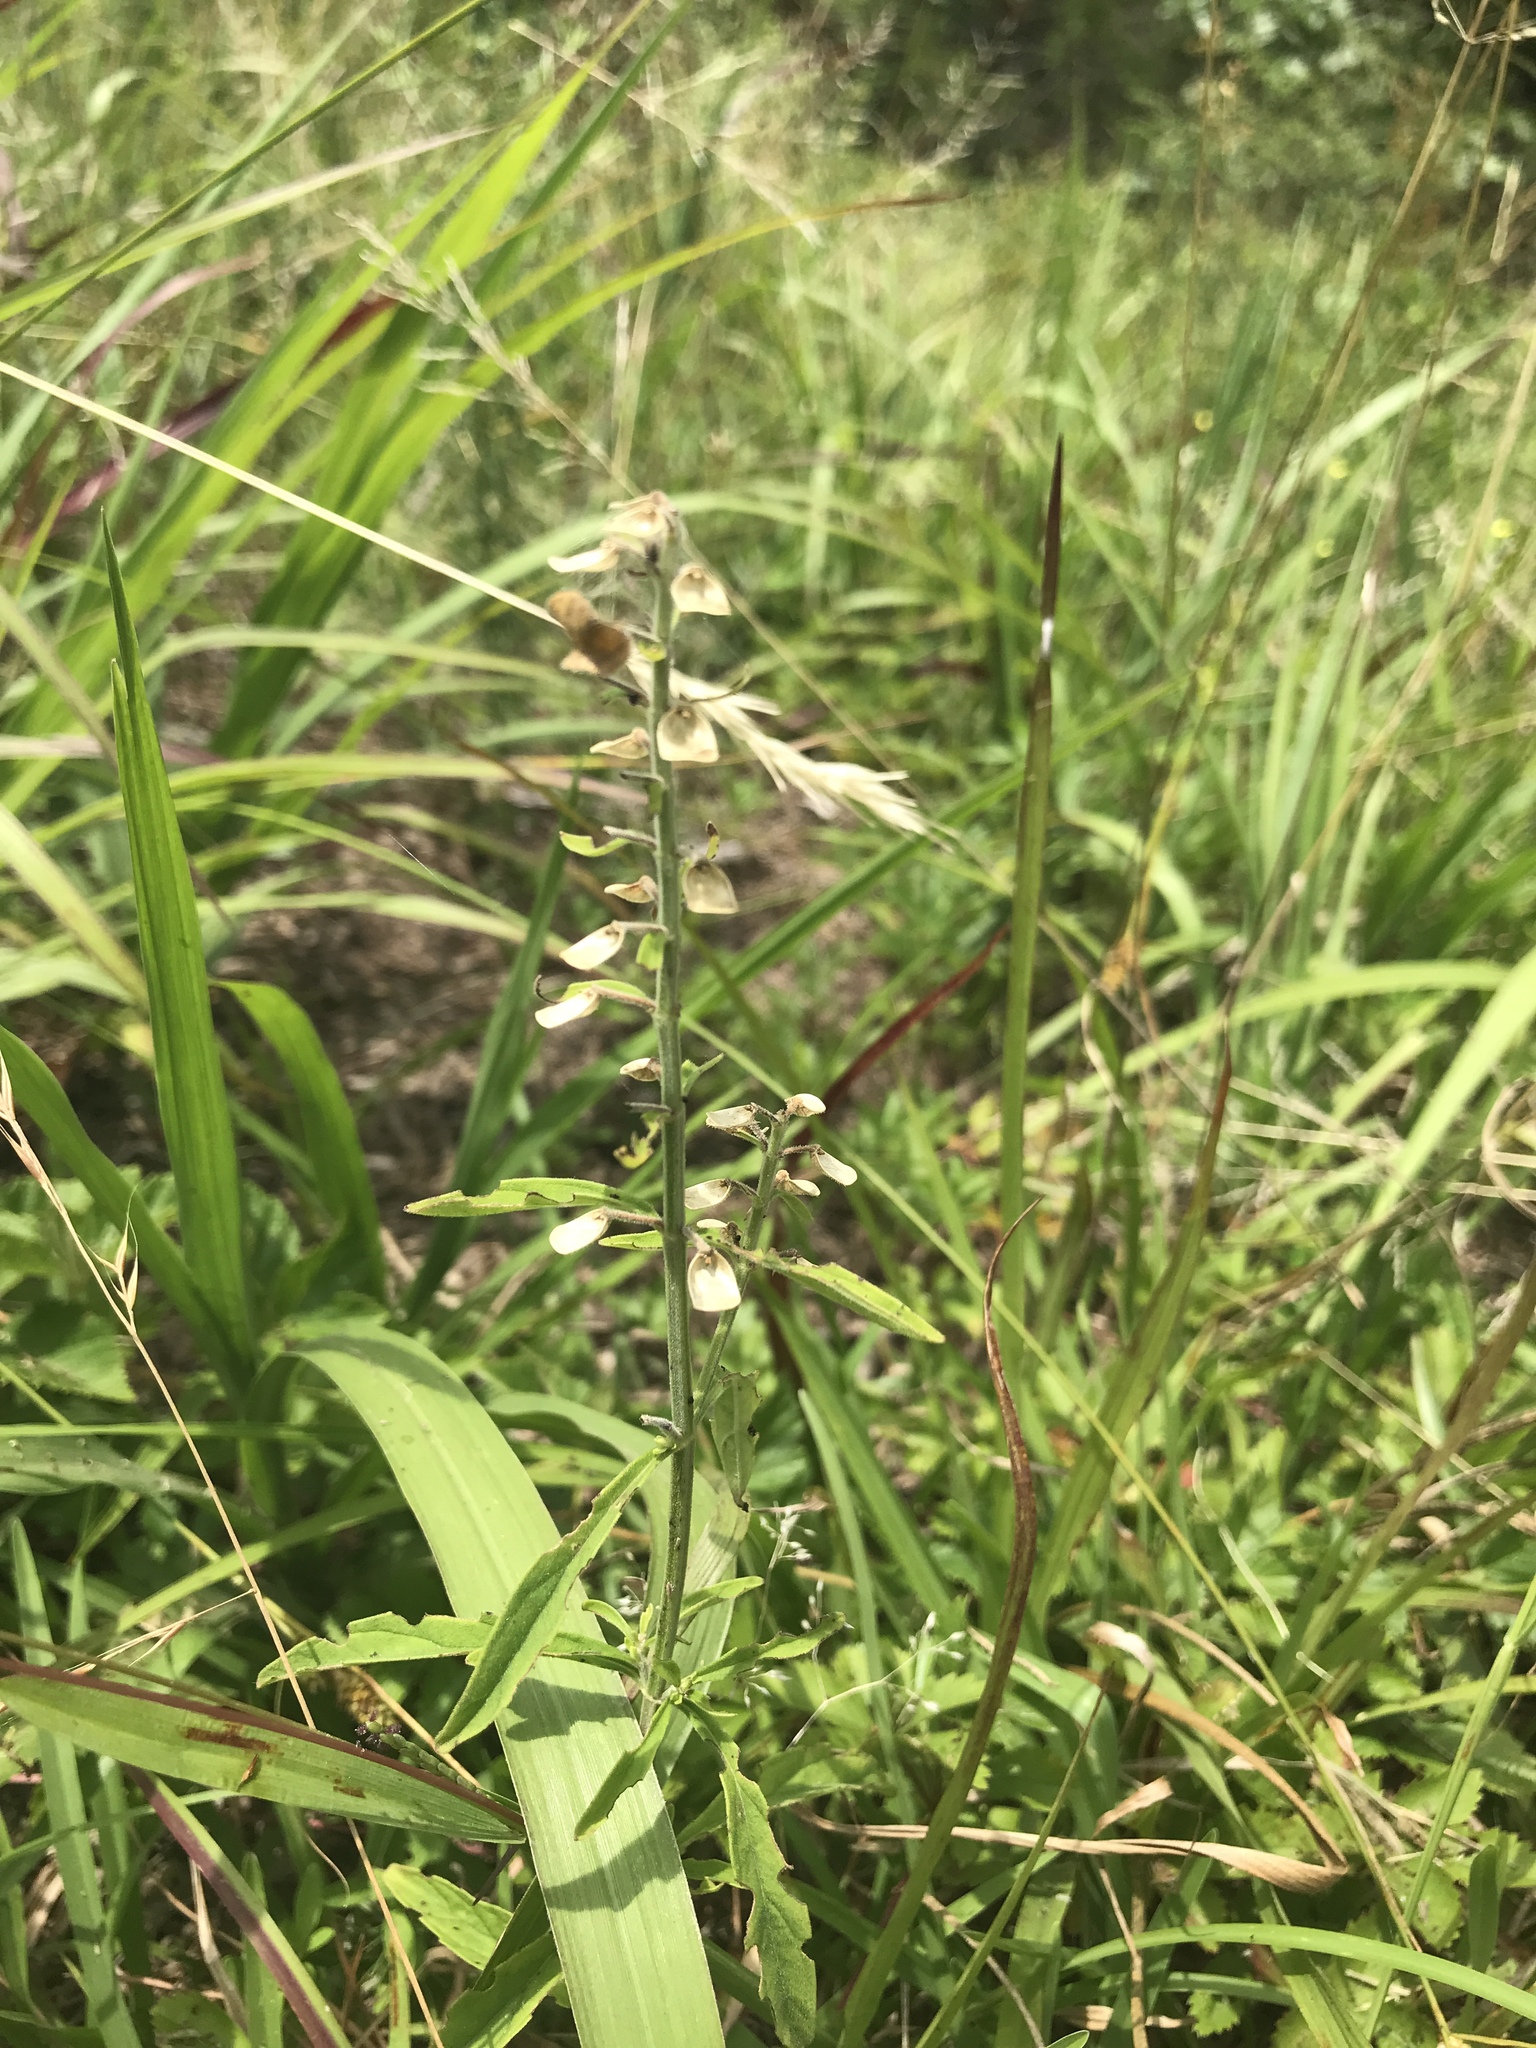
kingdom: Plantae
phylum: Tracheophyta
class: Magnoliopsida
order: Lamiales
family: Lamiaceae
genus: Scutellaria
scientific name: Scutellaria integrifolia
